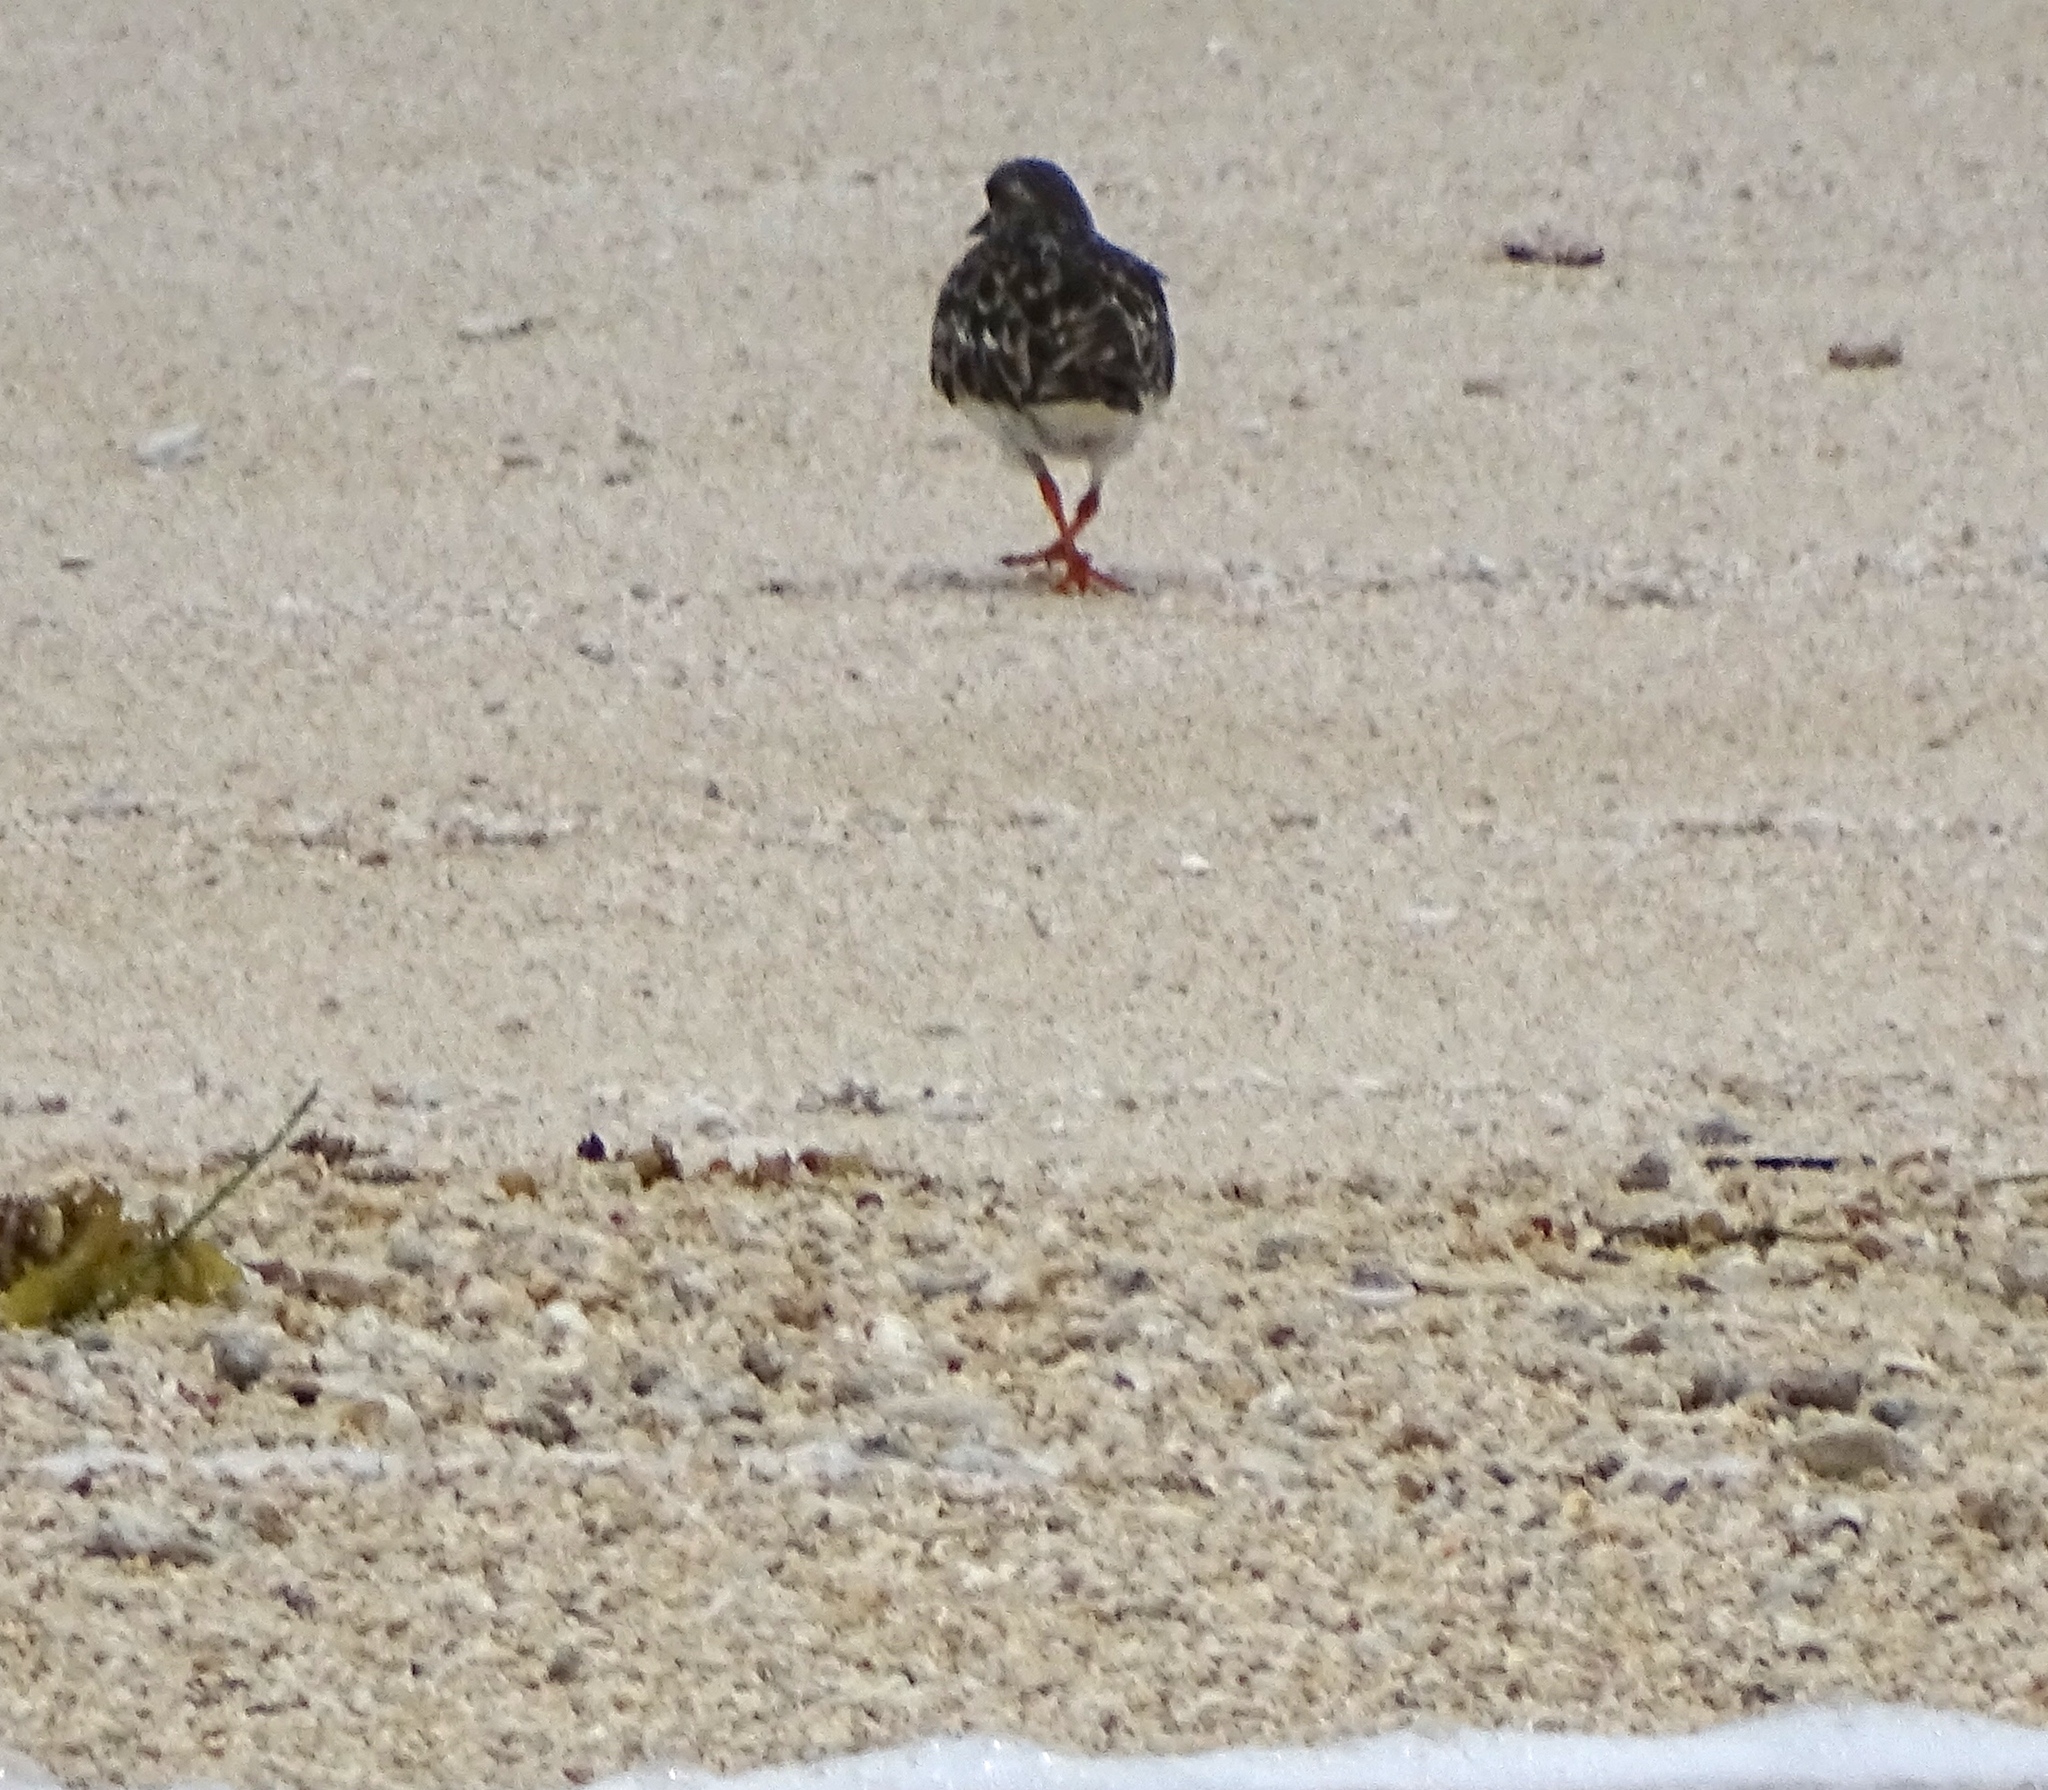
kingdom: Animalia
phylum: Chordata
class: Aves
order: Charadriiformes
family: Scolopacidae
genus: Arenaria
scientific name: Arenaria interpres
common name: Ruddy turnstone
